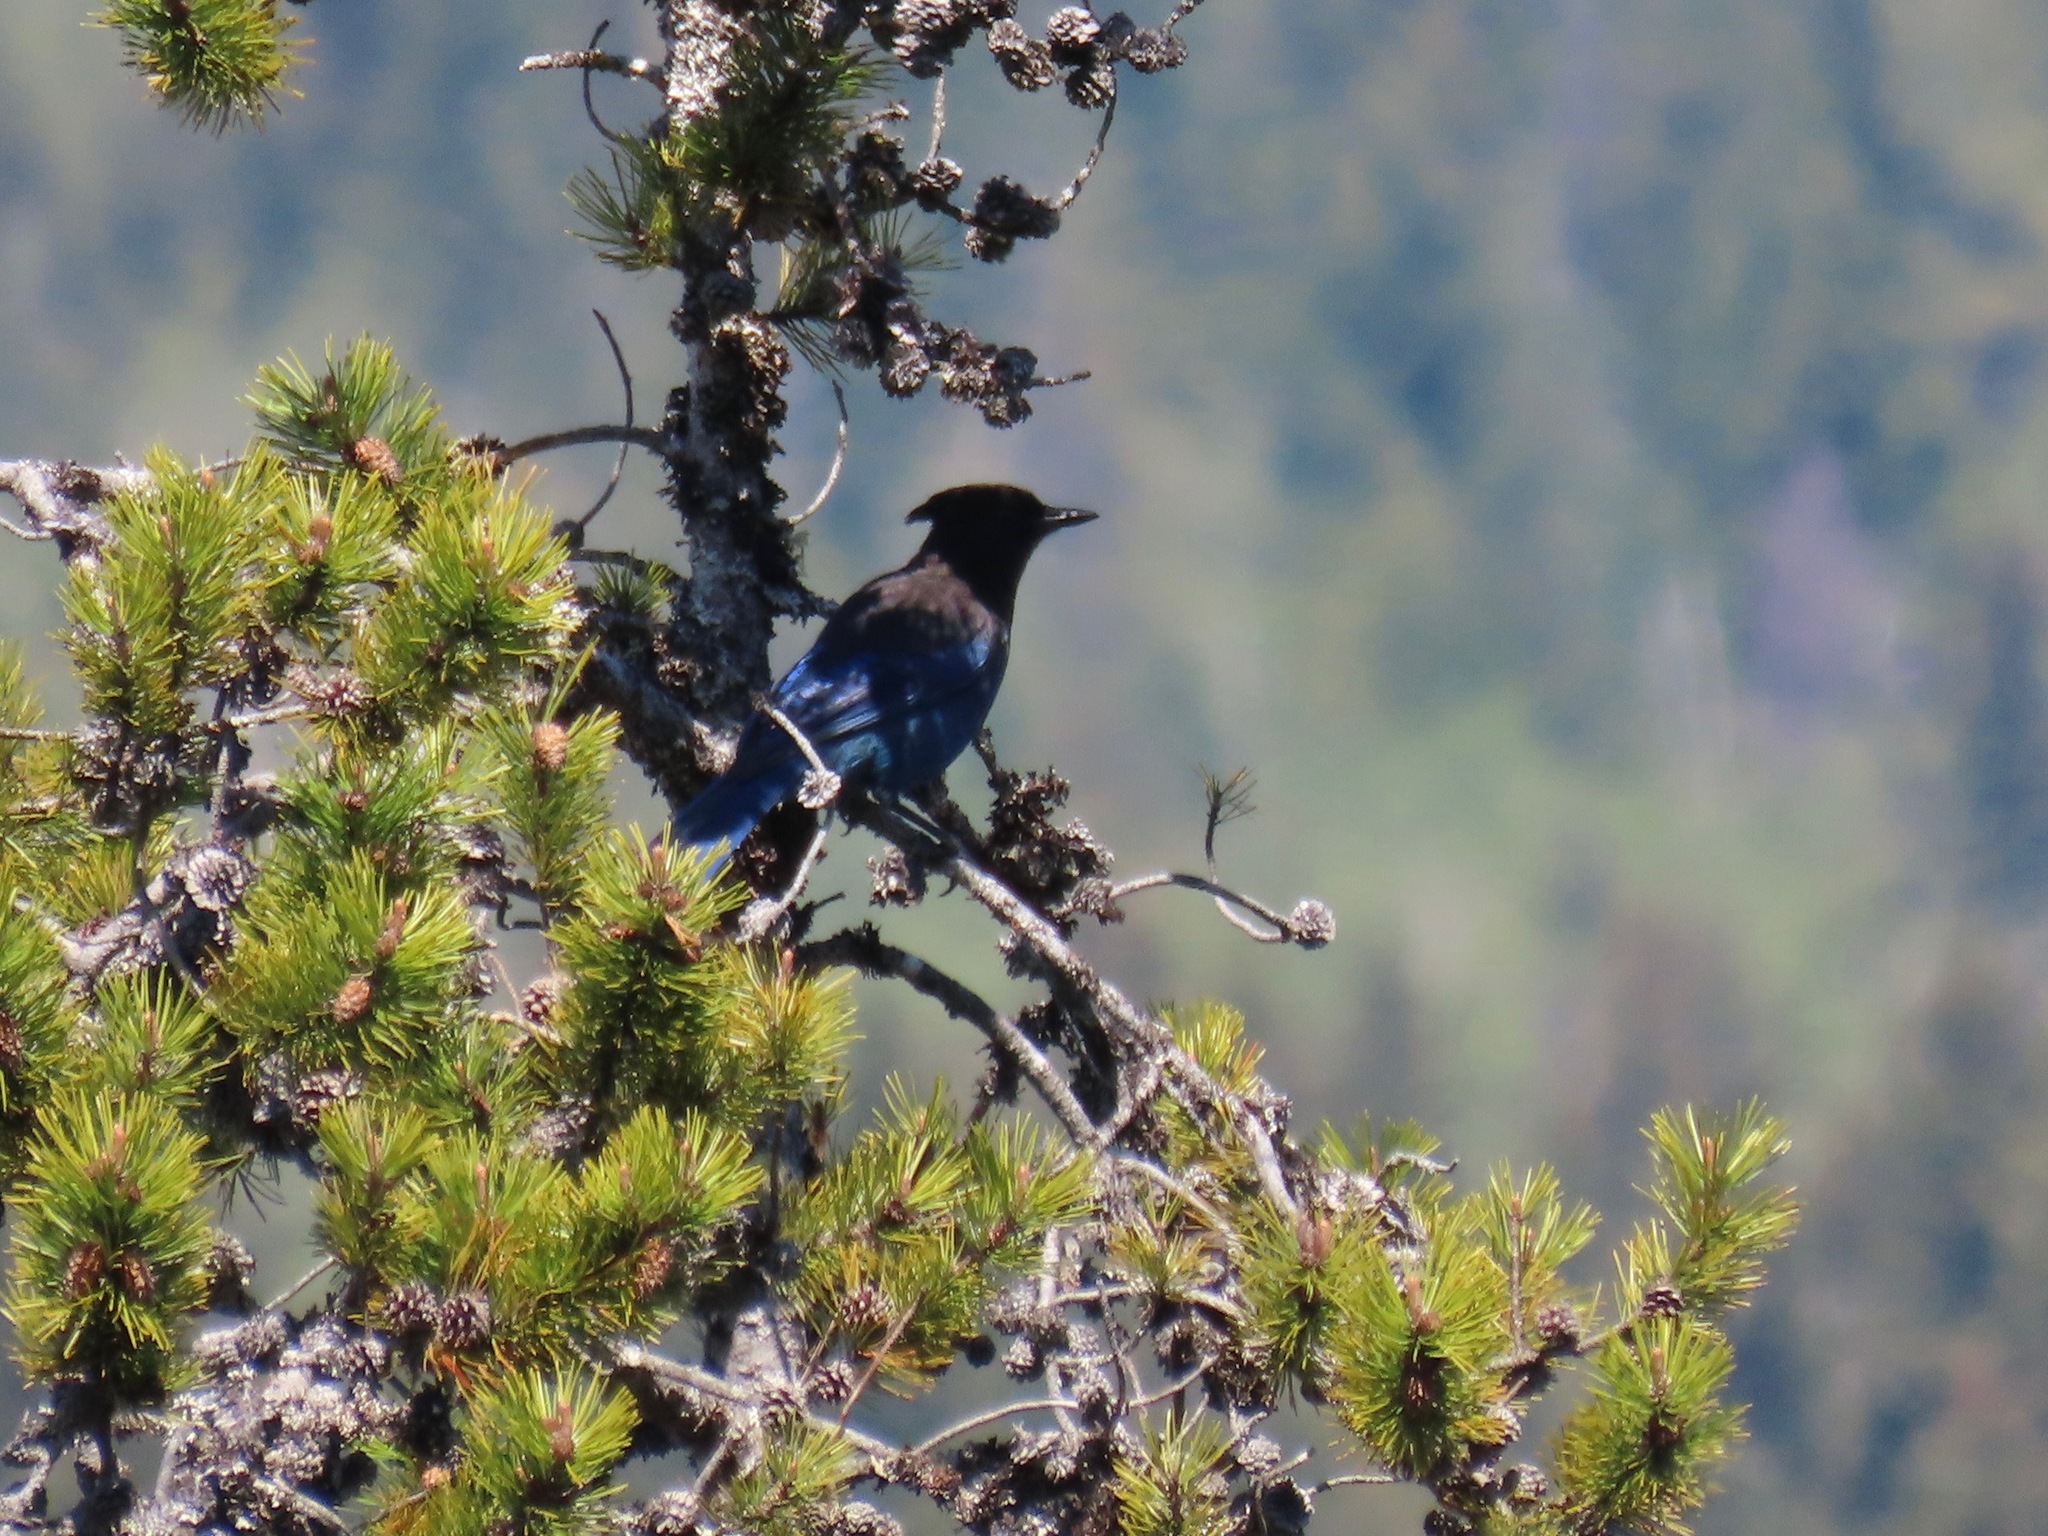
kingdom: Animalia
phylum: Chordata
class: Aves
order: Passeriformes
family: Corvidae
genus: Cyanocitta
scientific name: Cyanocitta stelleri
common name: Steller's jay
